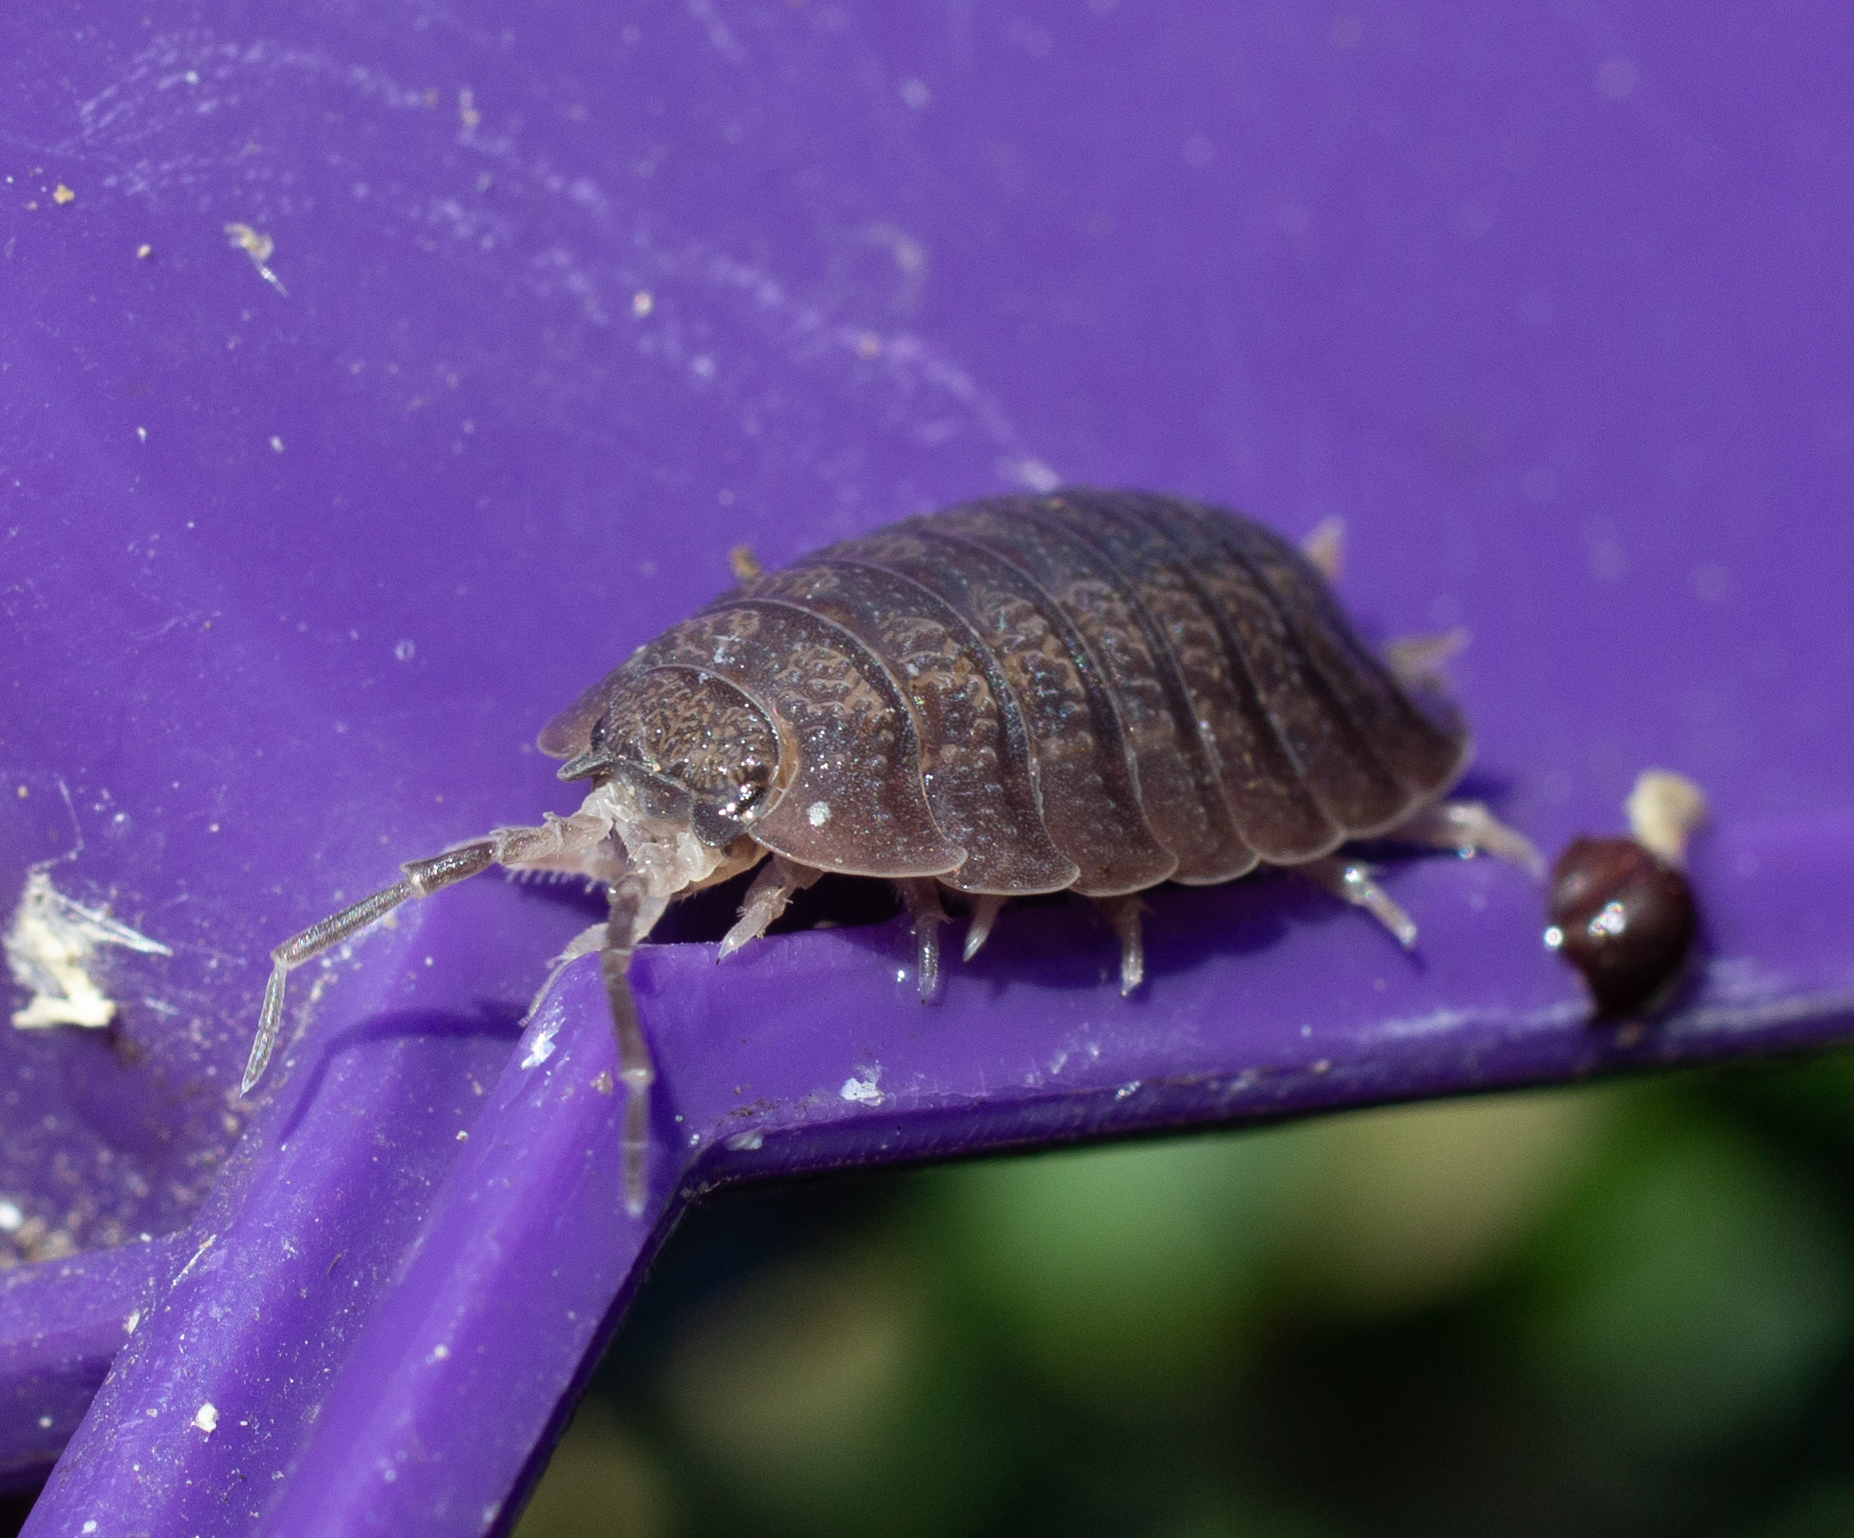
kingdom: Animalia
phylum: Arthropoda
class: Malacostraca
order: Isopoda
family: Porcellionidae
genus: Porcellio
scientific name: Porcellio dilatatus
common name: Isopod
